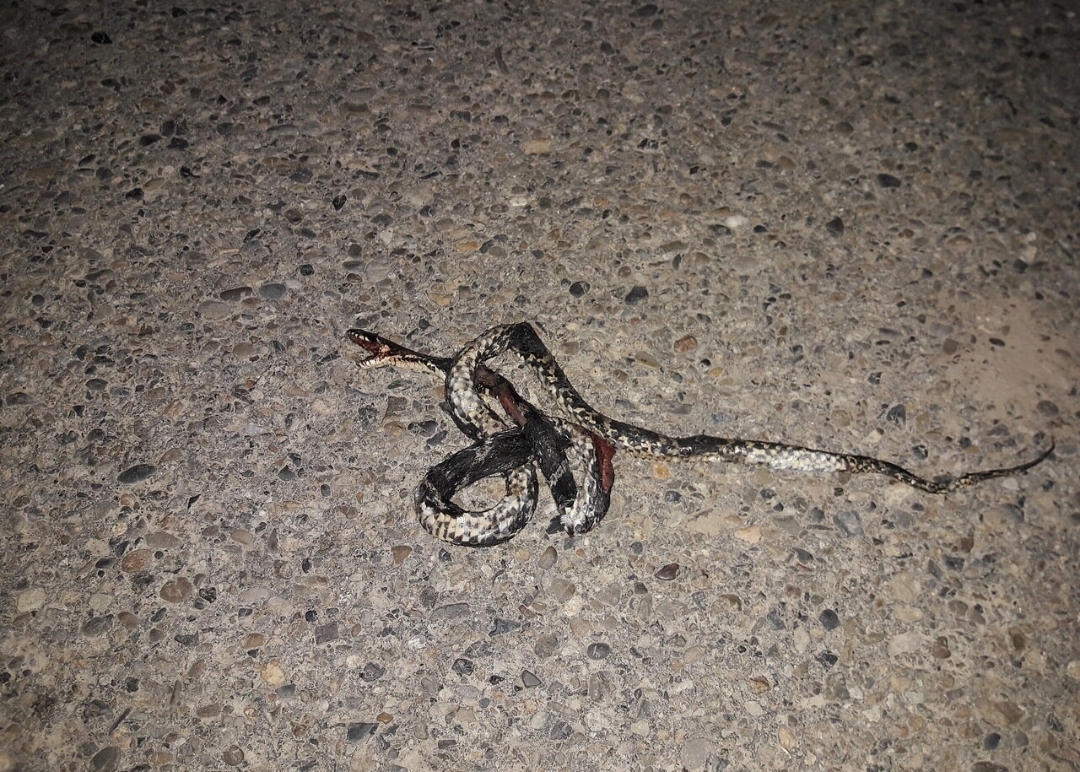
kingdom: Animalia
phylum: Chordata
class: Squamata
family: Colubridae
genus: Elaphe
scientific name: Elaphe schrenckii
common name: Amur rat snake
